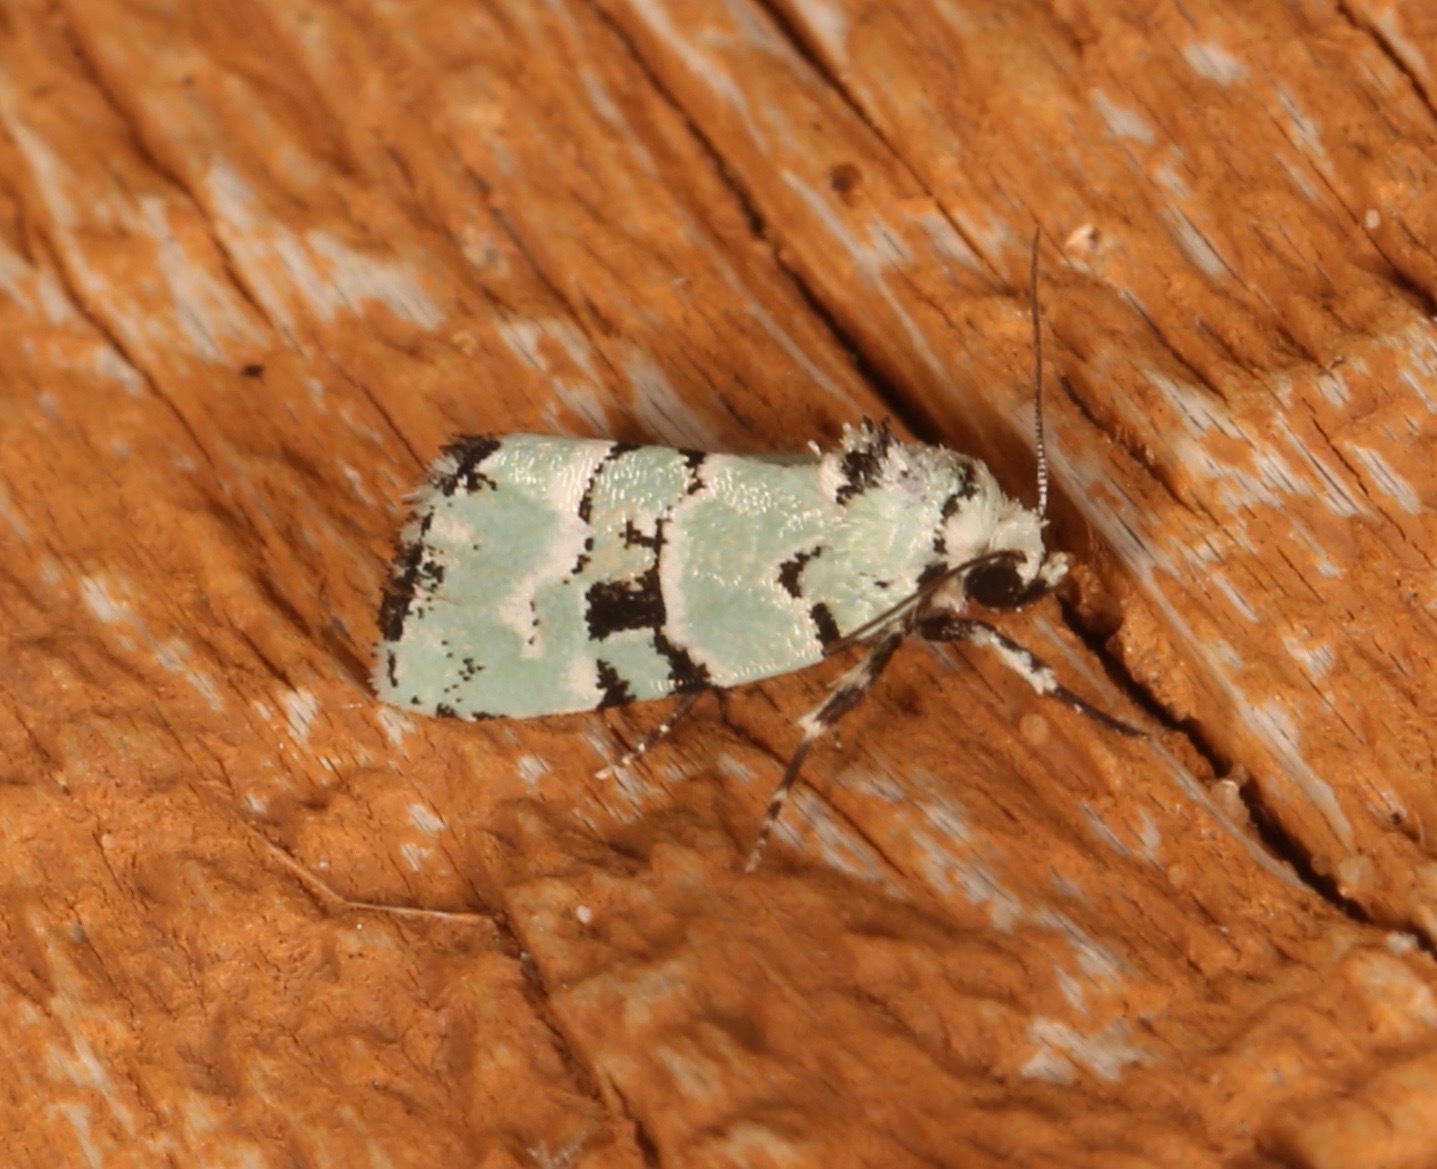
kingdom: Animalia
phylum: Arthropoda
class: Insecta
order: Lepidoptera
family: Noctuidae
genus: Elaphria
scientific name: Elaphria cyanympha
